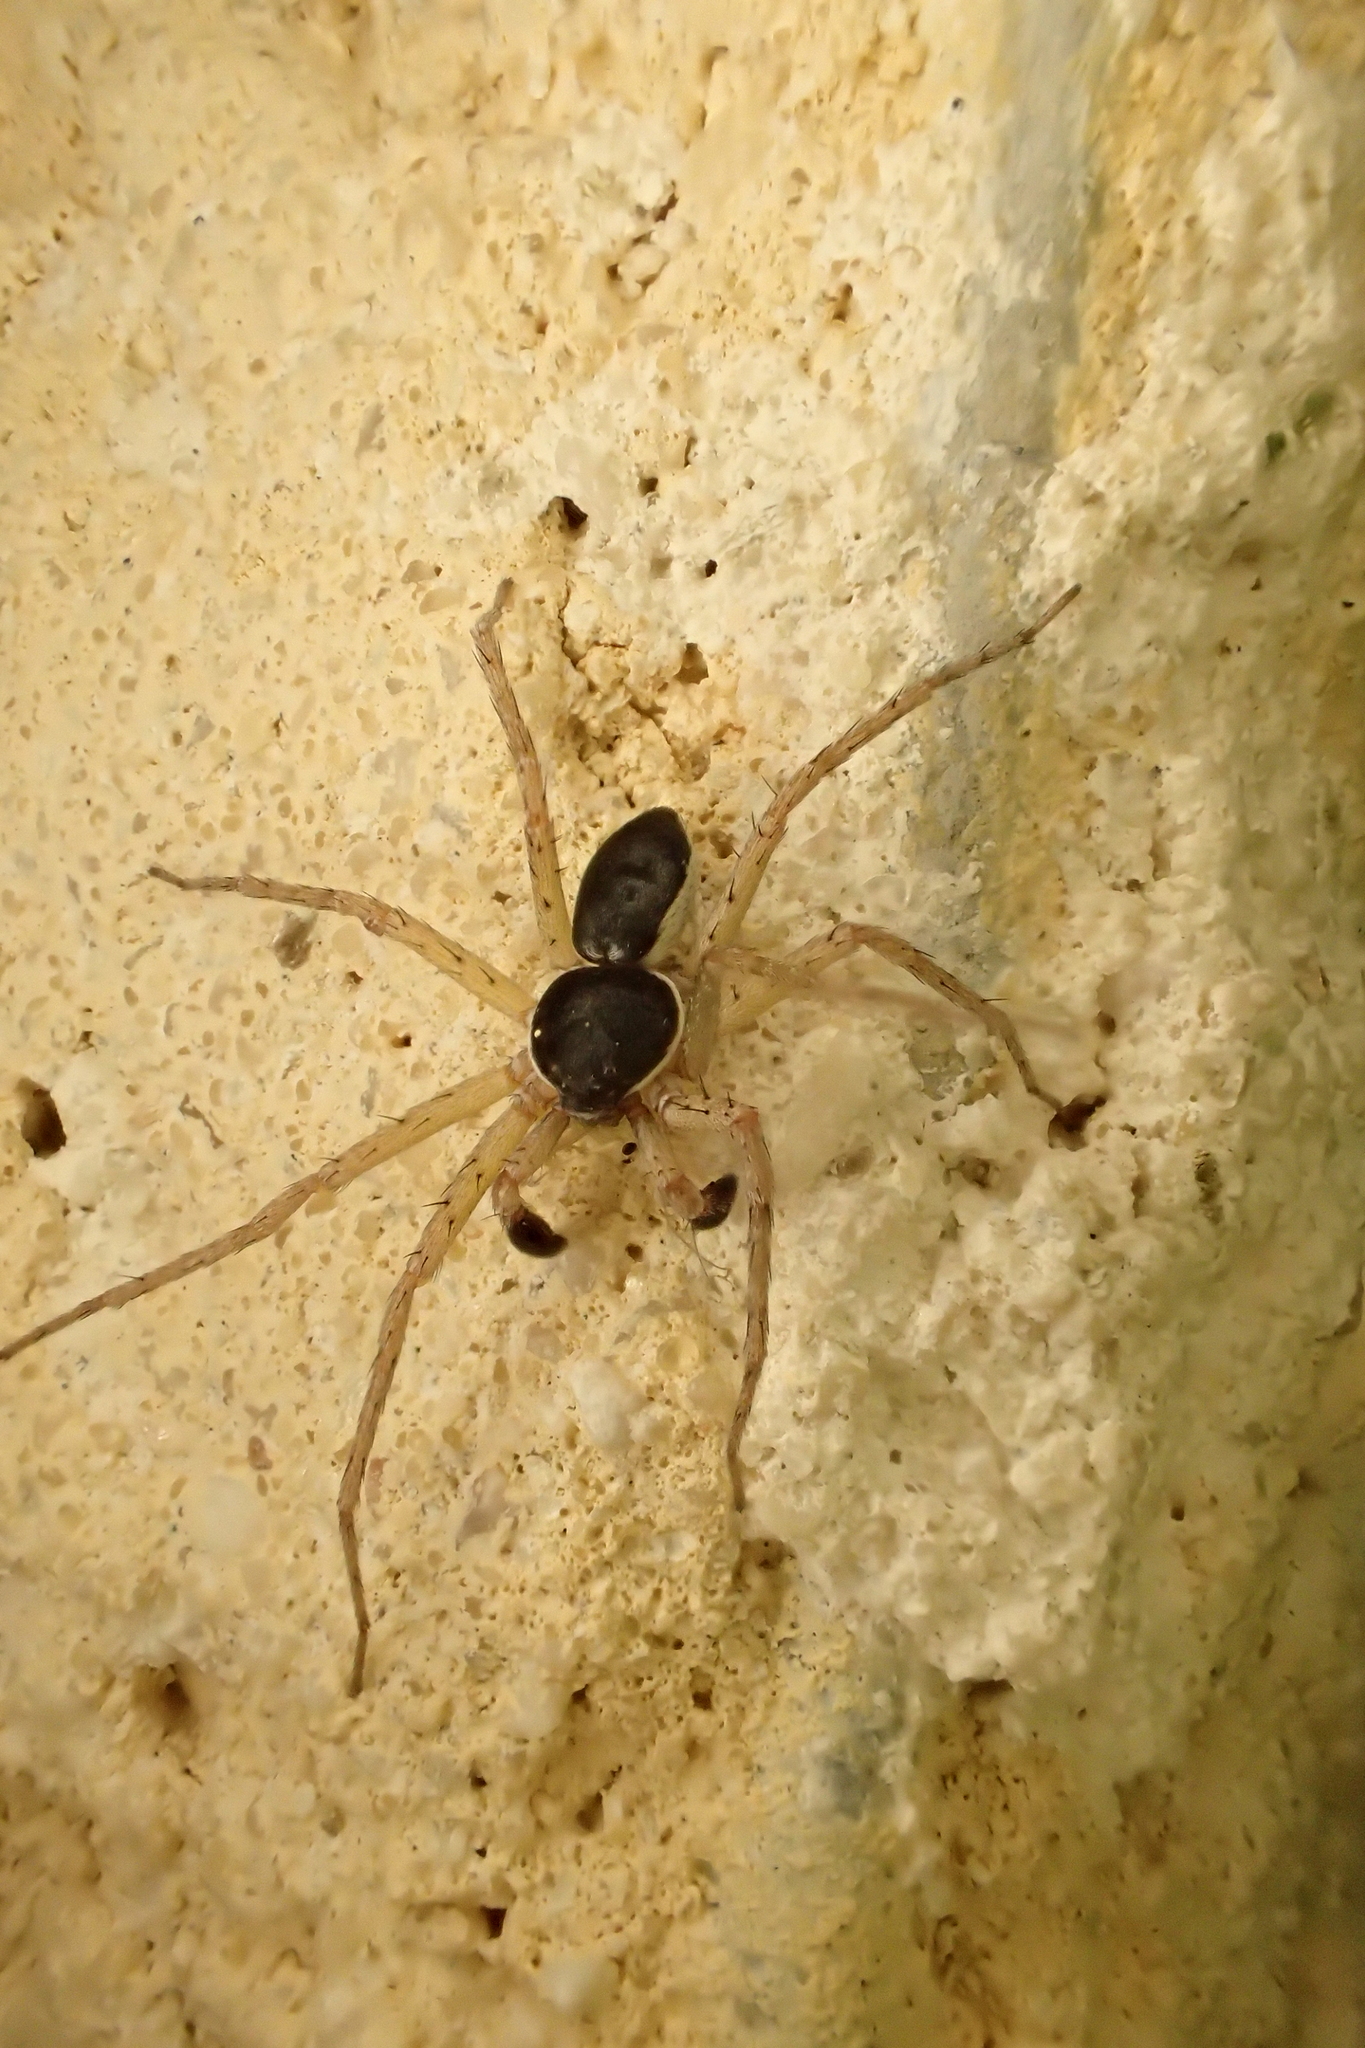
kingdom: Animalia
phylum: Arthropoda
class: Arachnida
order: Araneae
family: Philodromidae
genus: Philodromus
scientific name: Philodromus dispar
